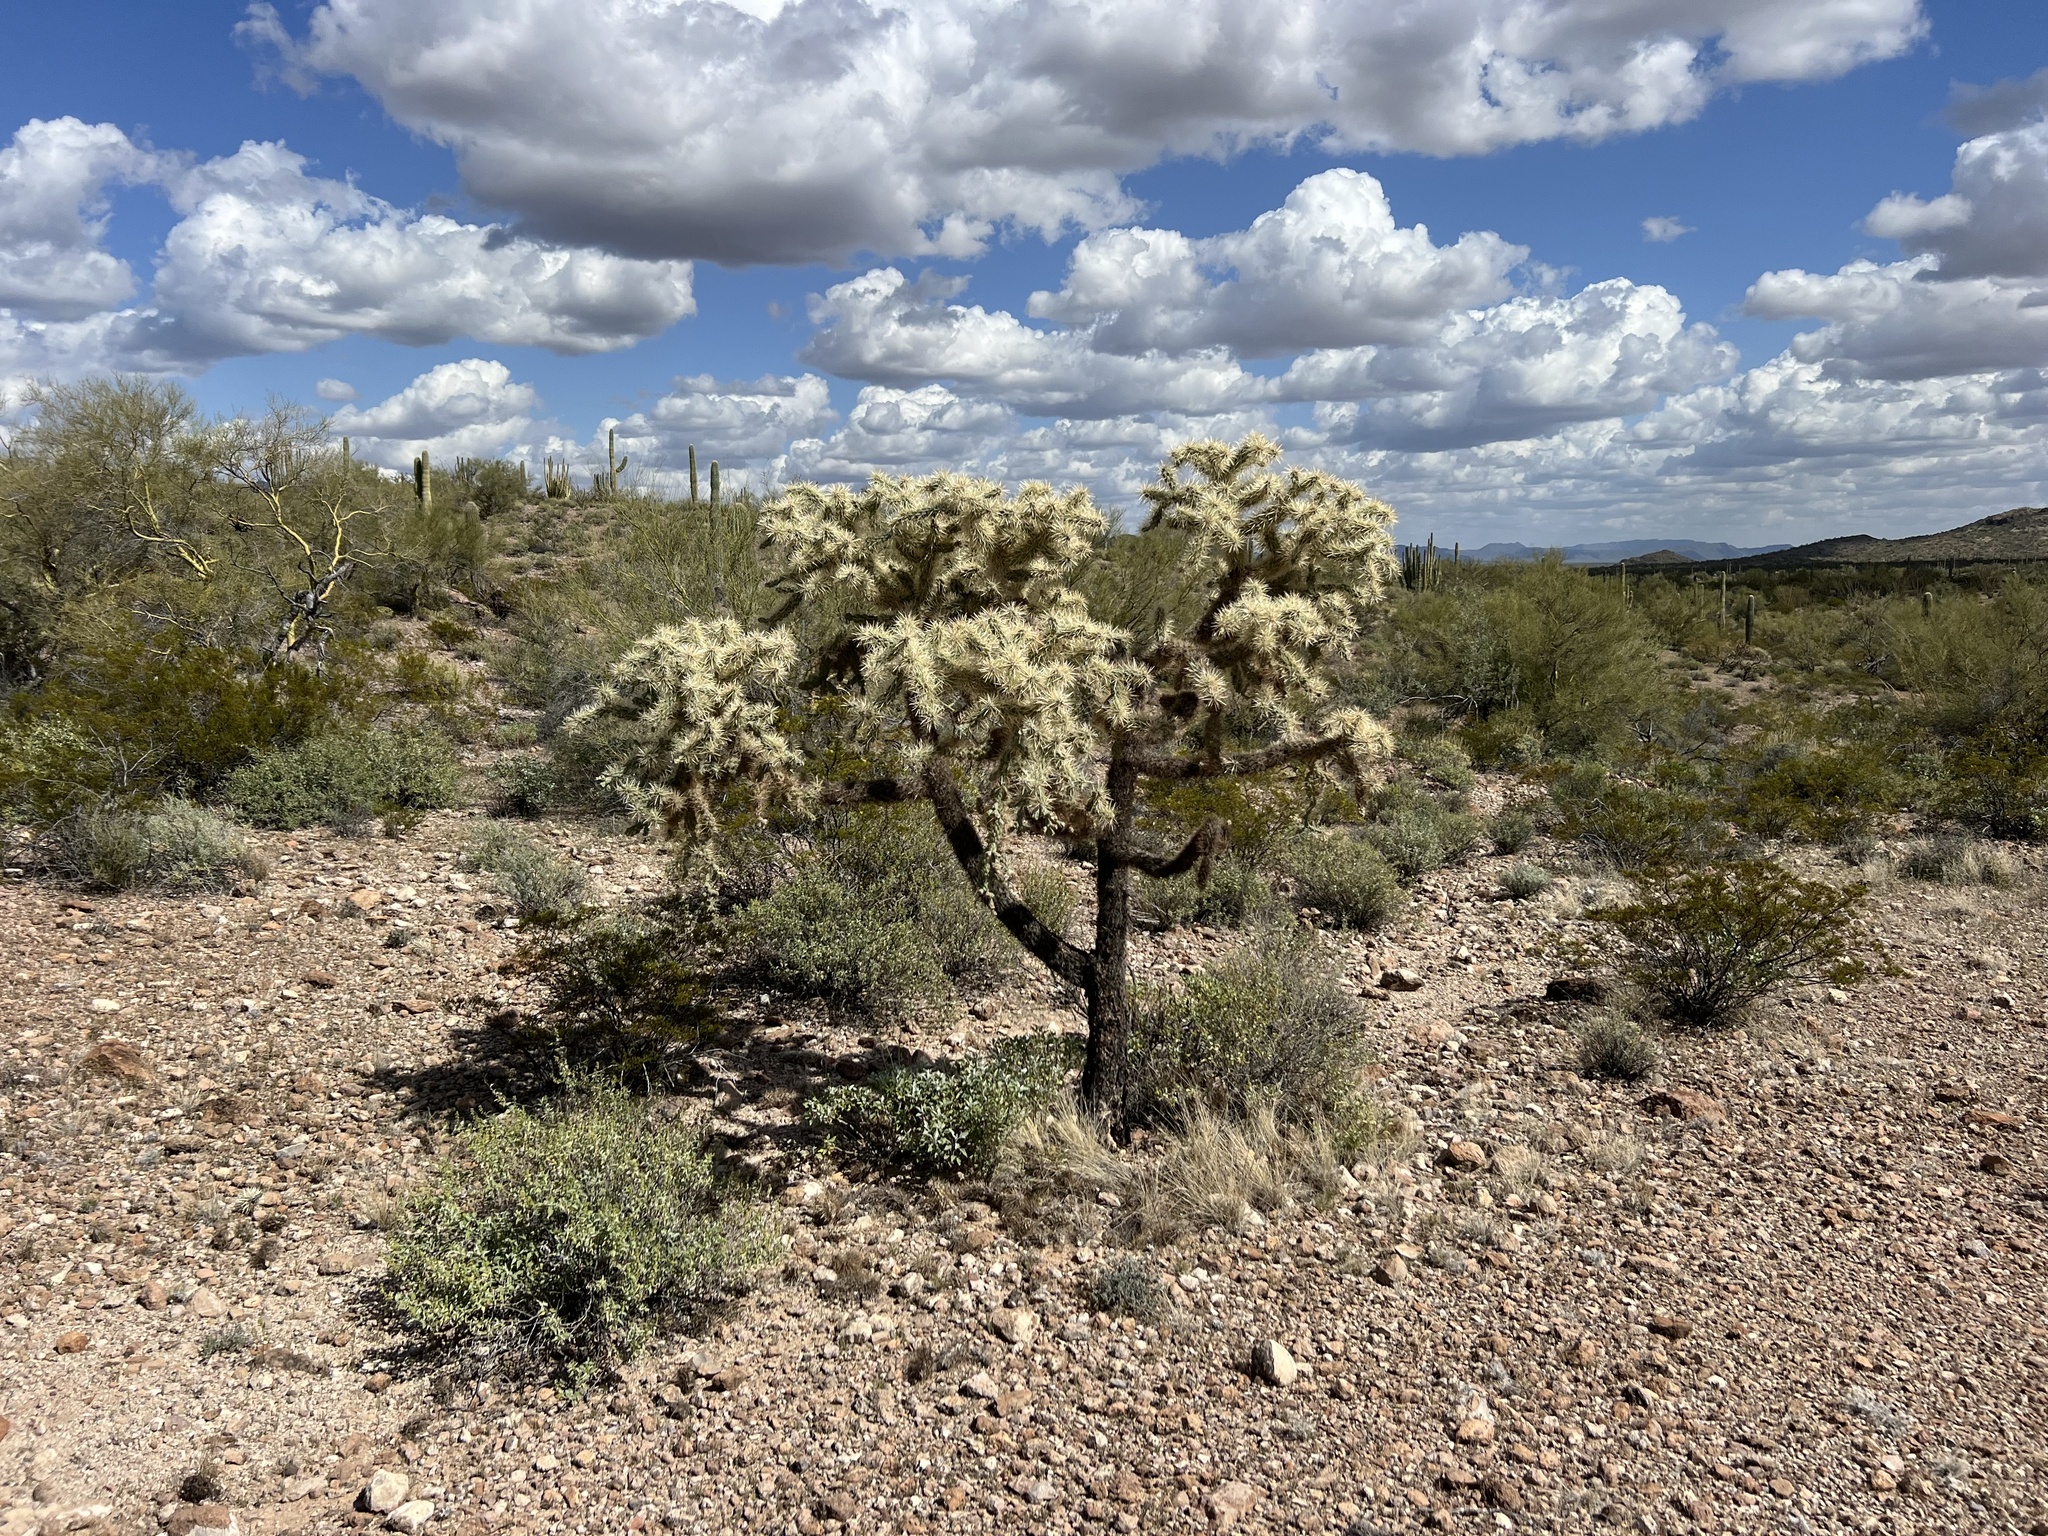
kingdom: Plantae
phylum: Tracheophyta
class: Magnoliopsida
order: Caryophyllales
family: Cactaceae
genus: Cylindropuntia
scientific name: Cylindropuntia fulgida
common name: Jumping cholla
